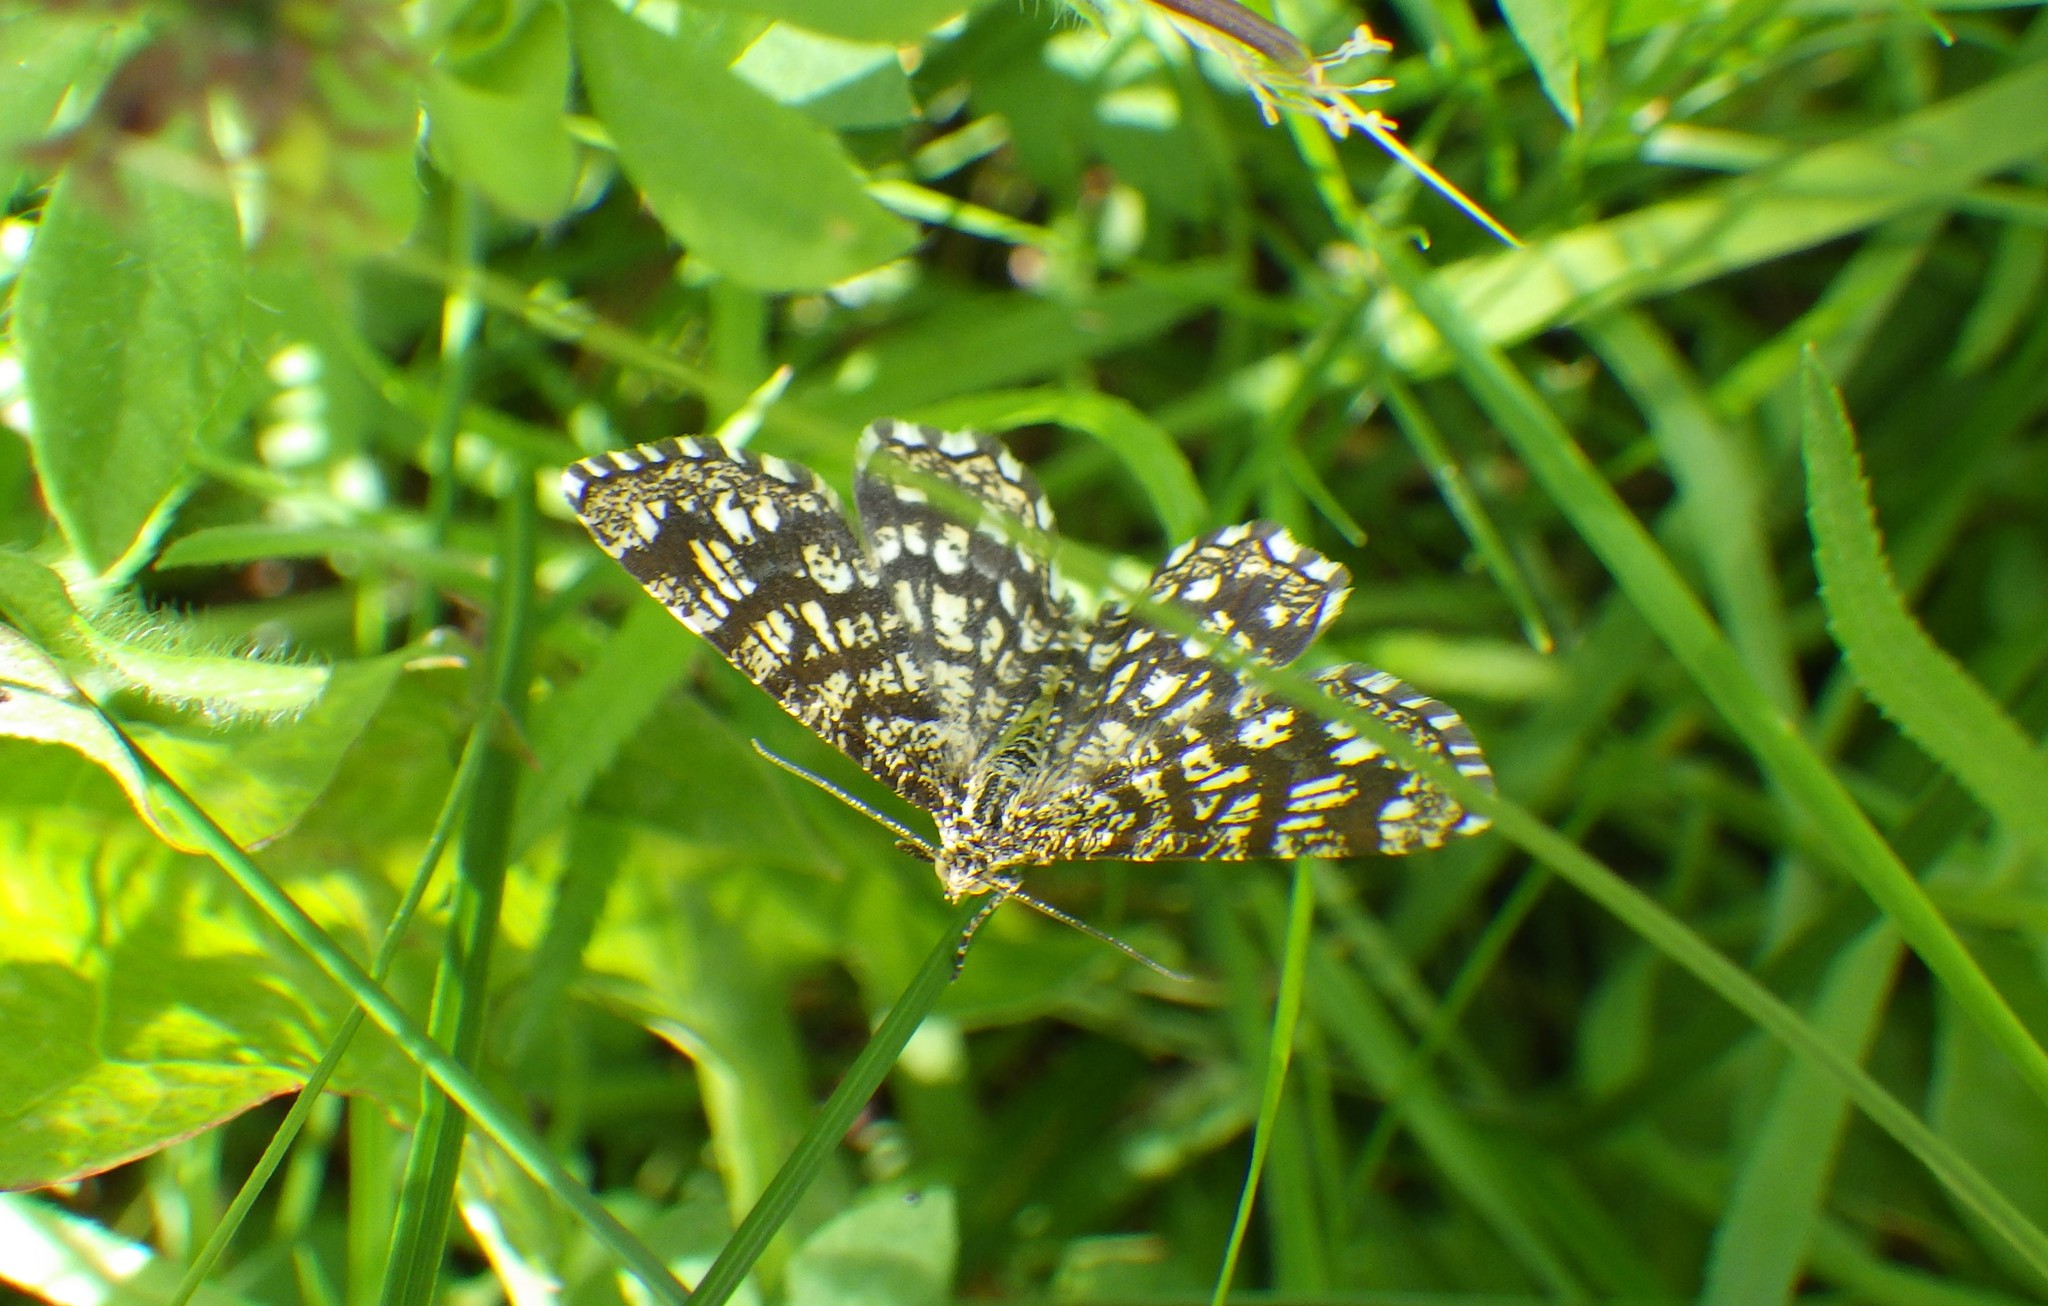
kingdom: Animalia
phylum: Arthropoda
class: Insecta
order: Lepidoptera
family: Geometridae
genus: Chiasmia
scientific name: Chiasmia clathrata
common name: Latticed heath
